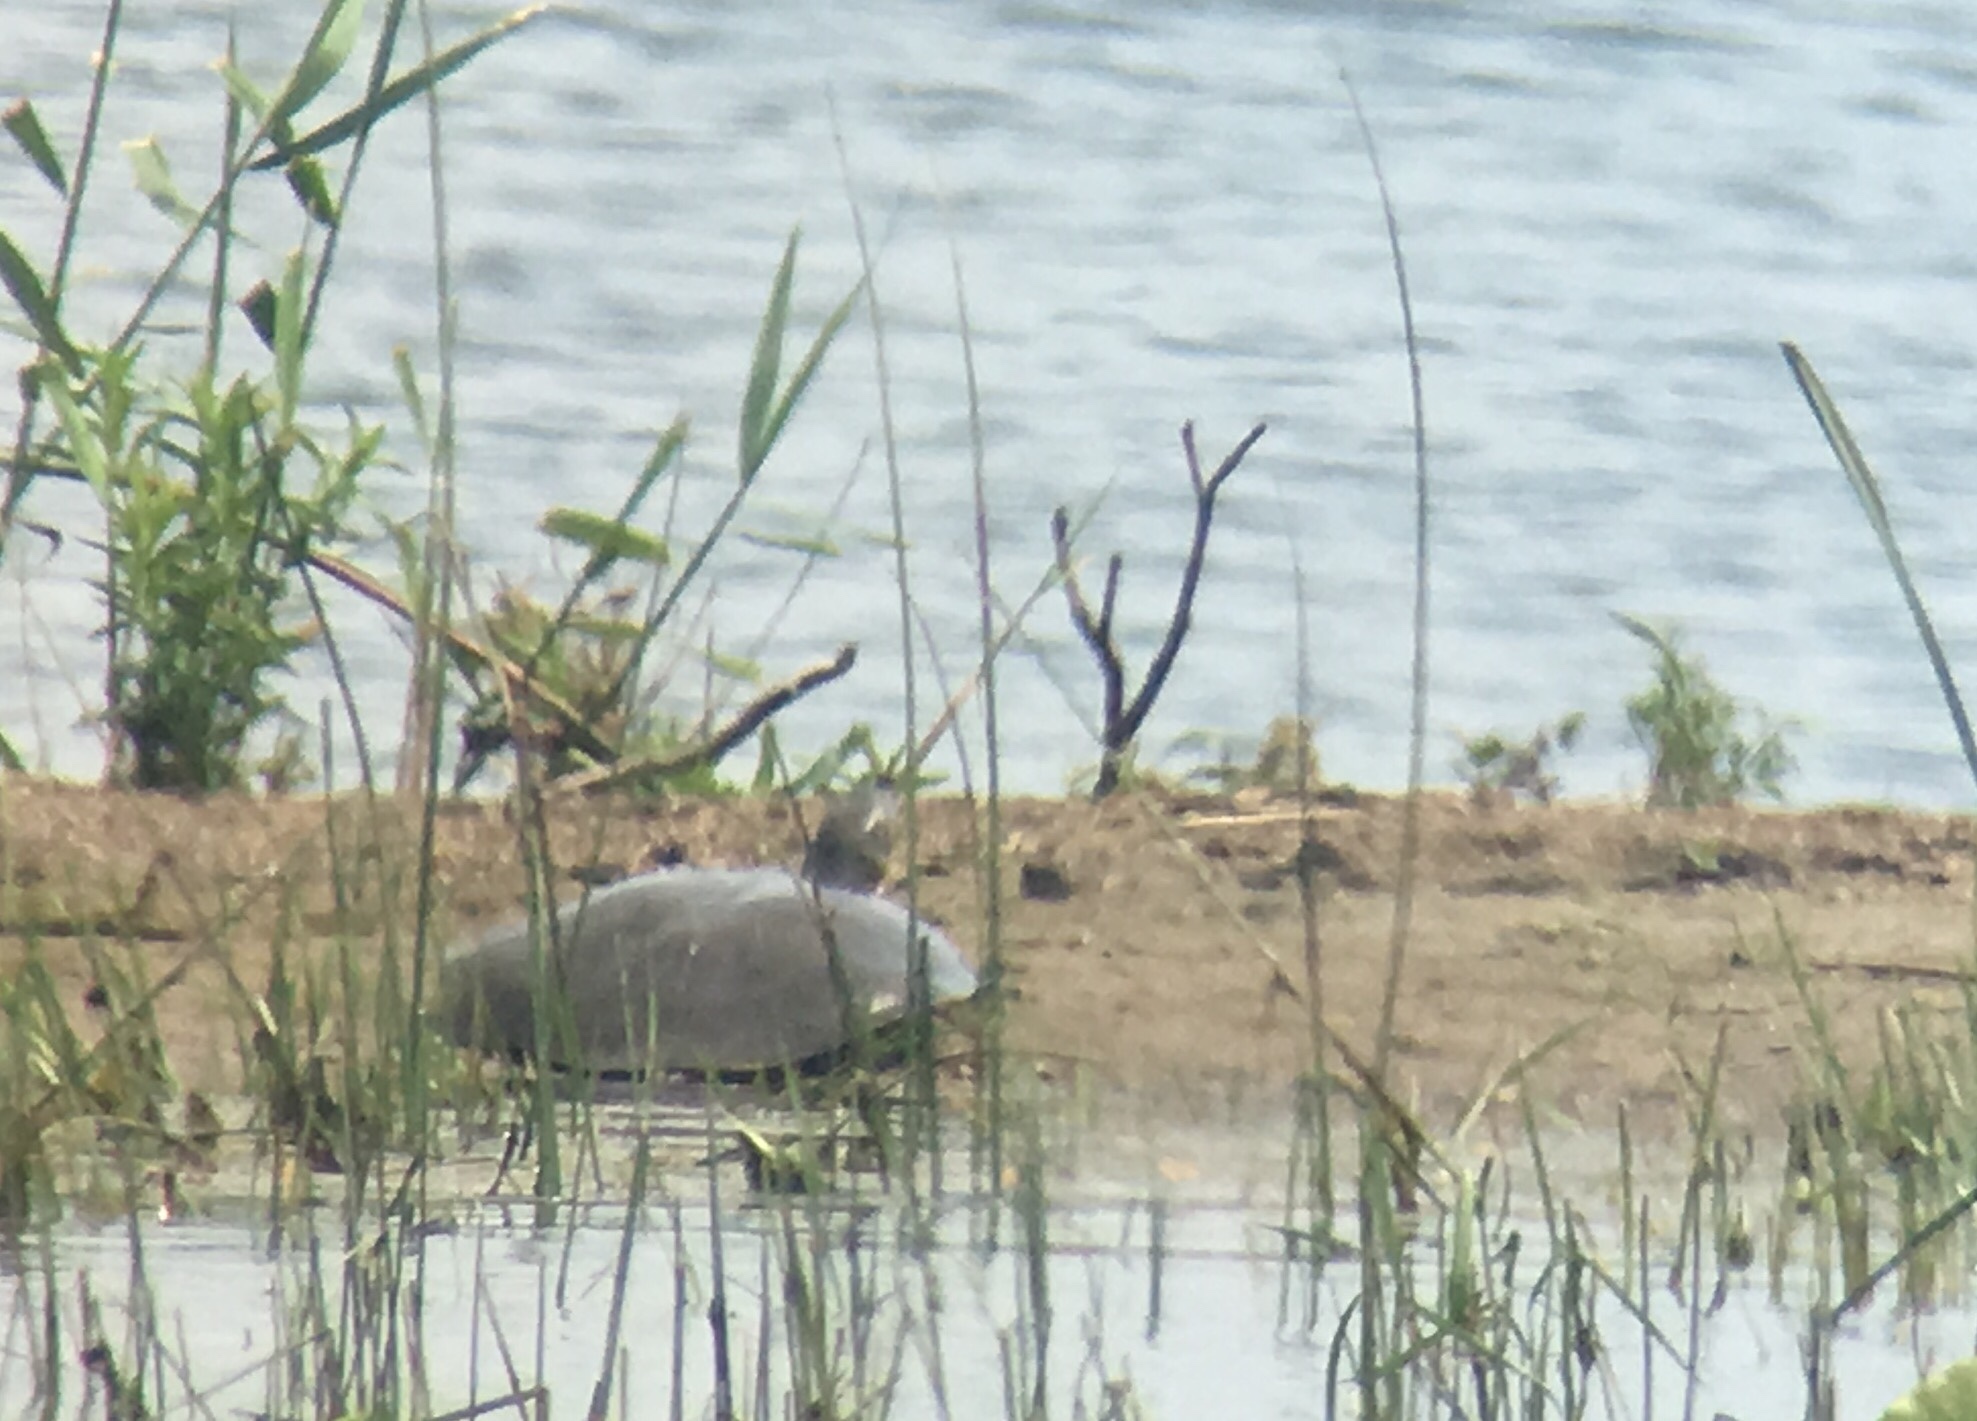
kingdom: Animalia
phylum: Chordata
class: Testudines
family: Trionychidae
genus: Apalone
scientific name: Apalone spinifera
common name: Spiny softshell turtle
